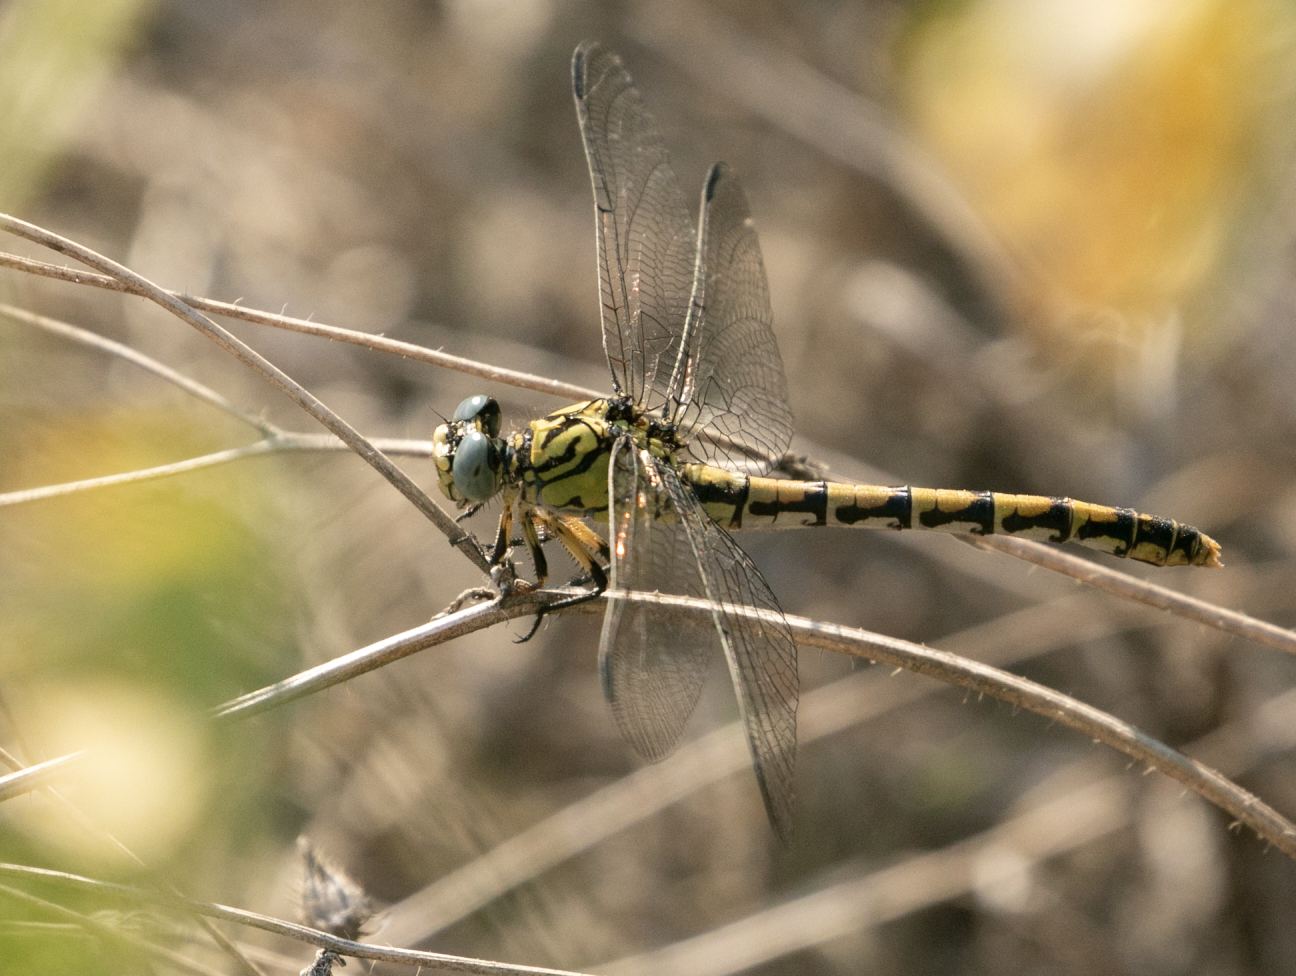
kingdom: Animalia
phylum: Arthropoda
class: Insecta
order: Odonata
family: Gomphidae
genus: Onychogomphus
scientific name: Onychogomphus forcipatus
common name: Small pincertail
